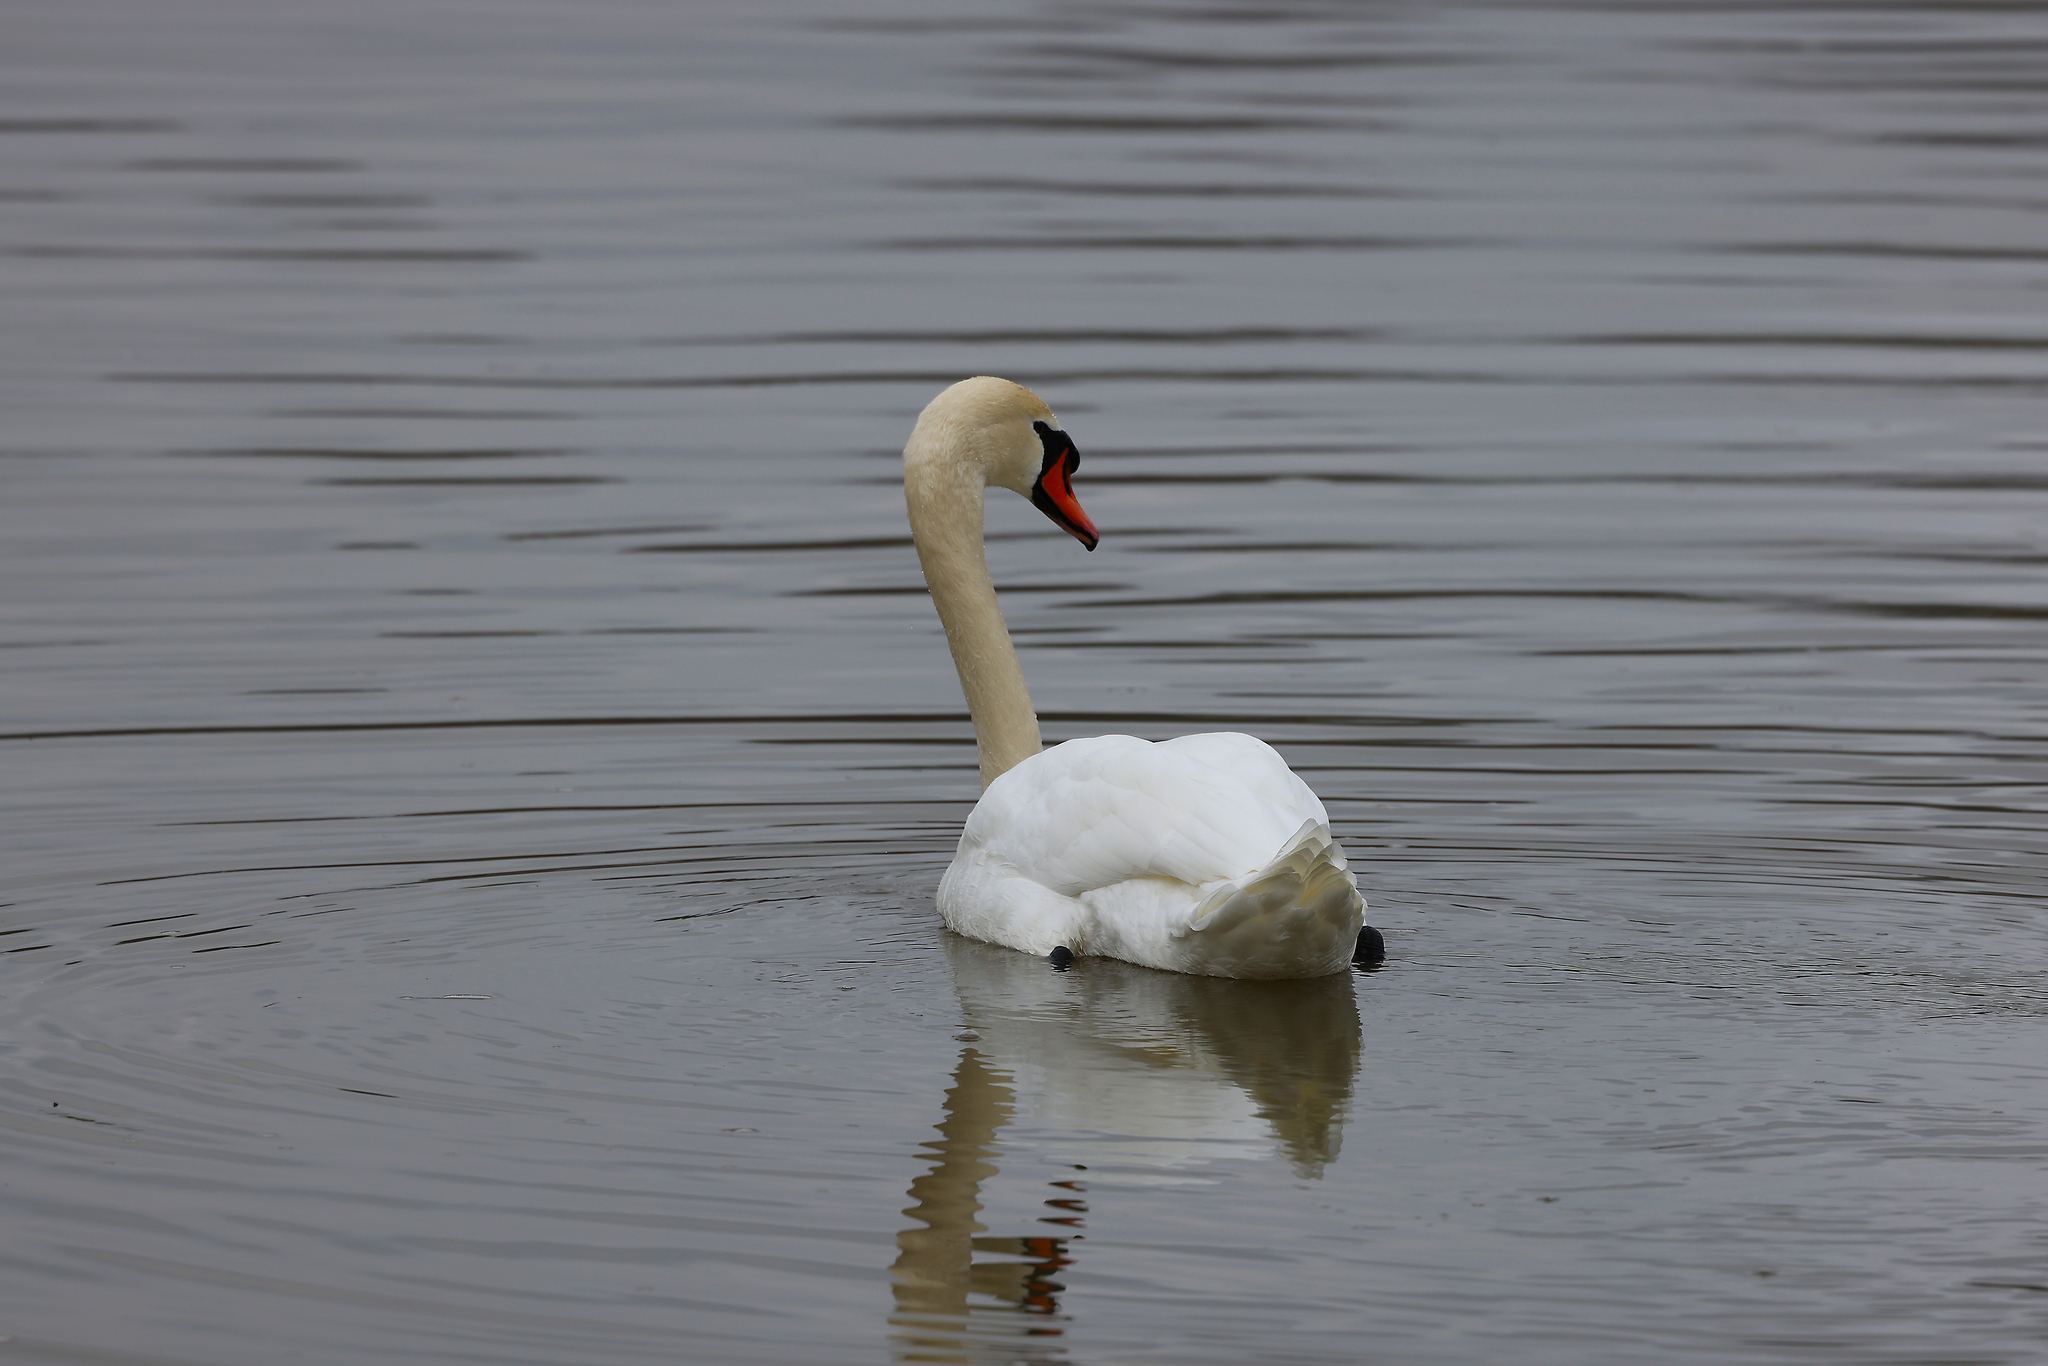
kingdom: Animalia
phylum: Chordata
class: Aves
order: Anseriformes
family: Anatidae
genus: Cygnus
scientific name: Cygnus olor
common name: Mute swan
